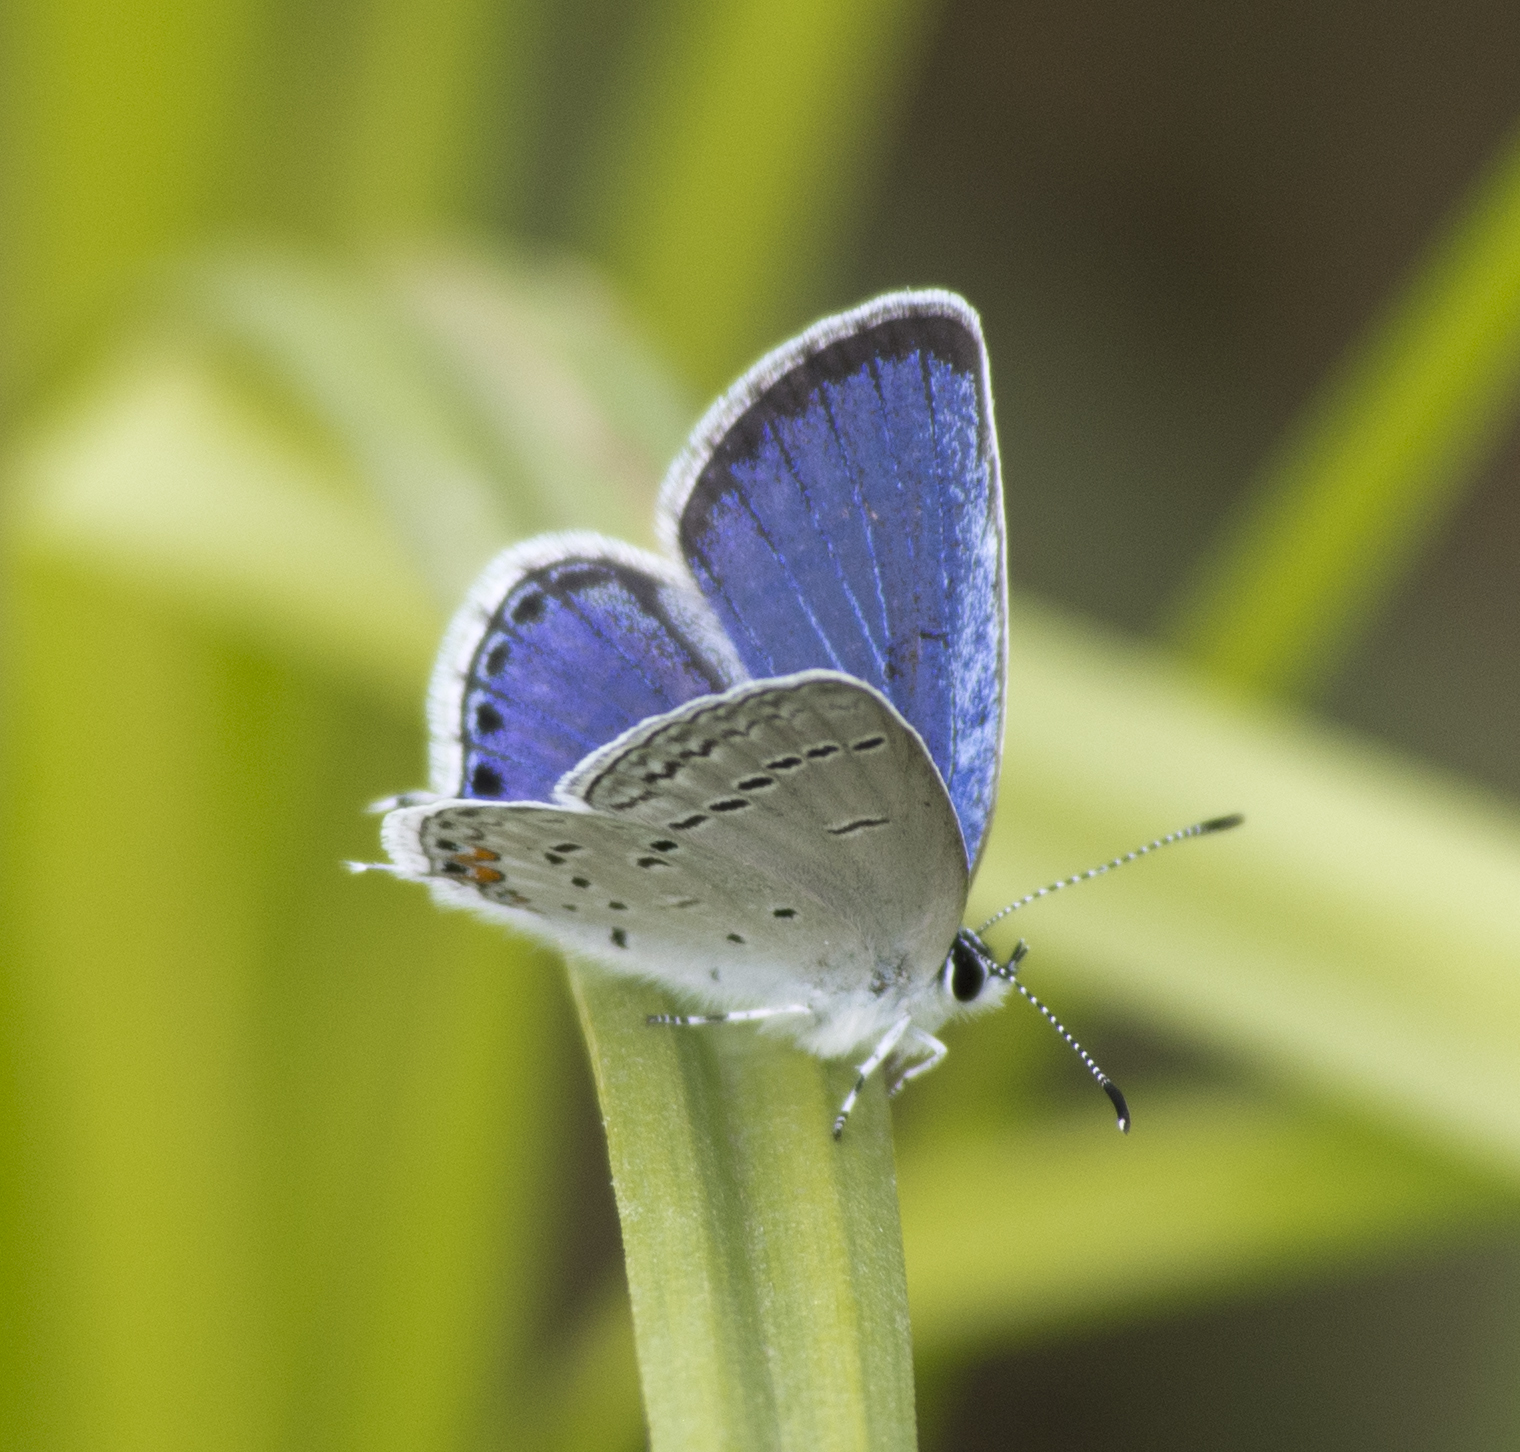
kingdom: Animalia
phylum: Arthropoda
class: Insecta
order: Lepidoptera
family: Lycaenidae
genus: Elkalyce
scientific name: Elkalyce comyntas
